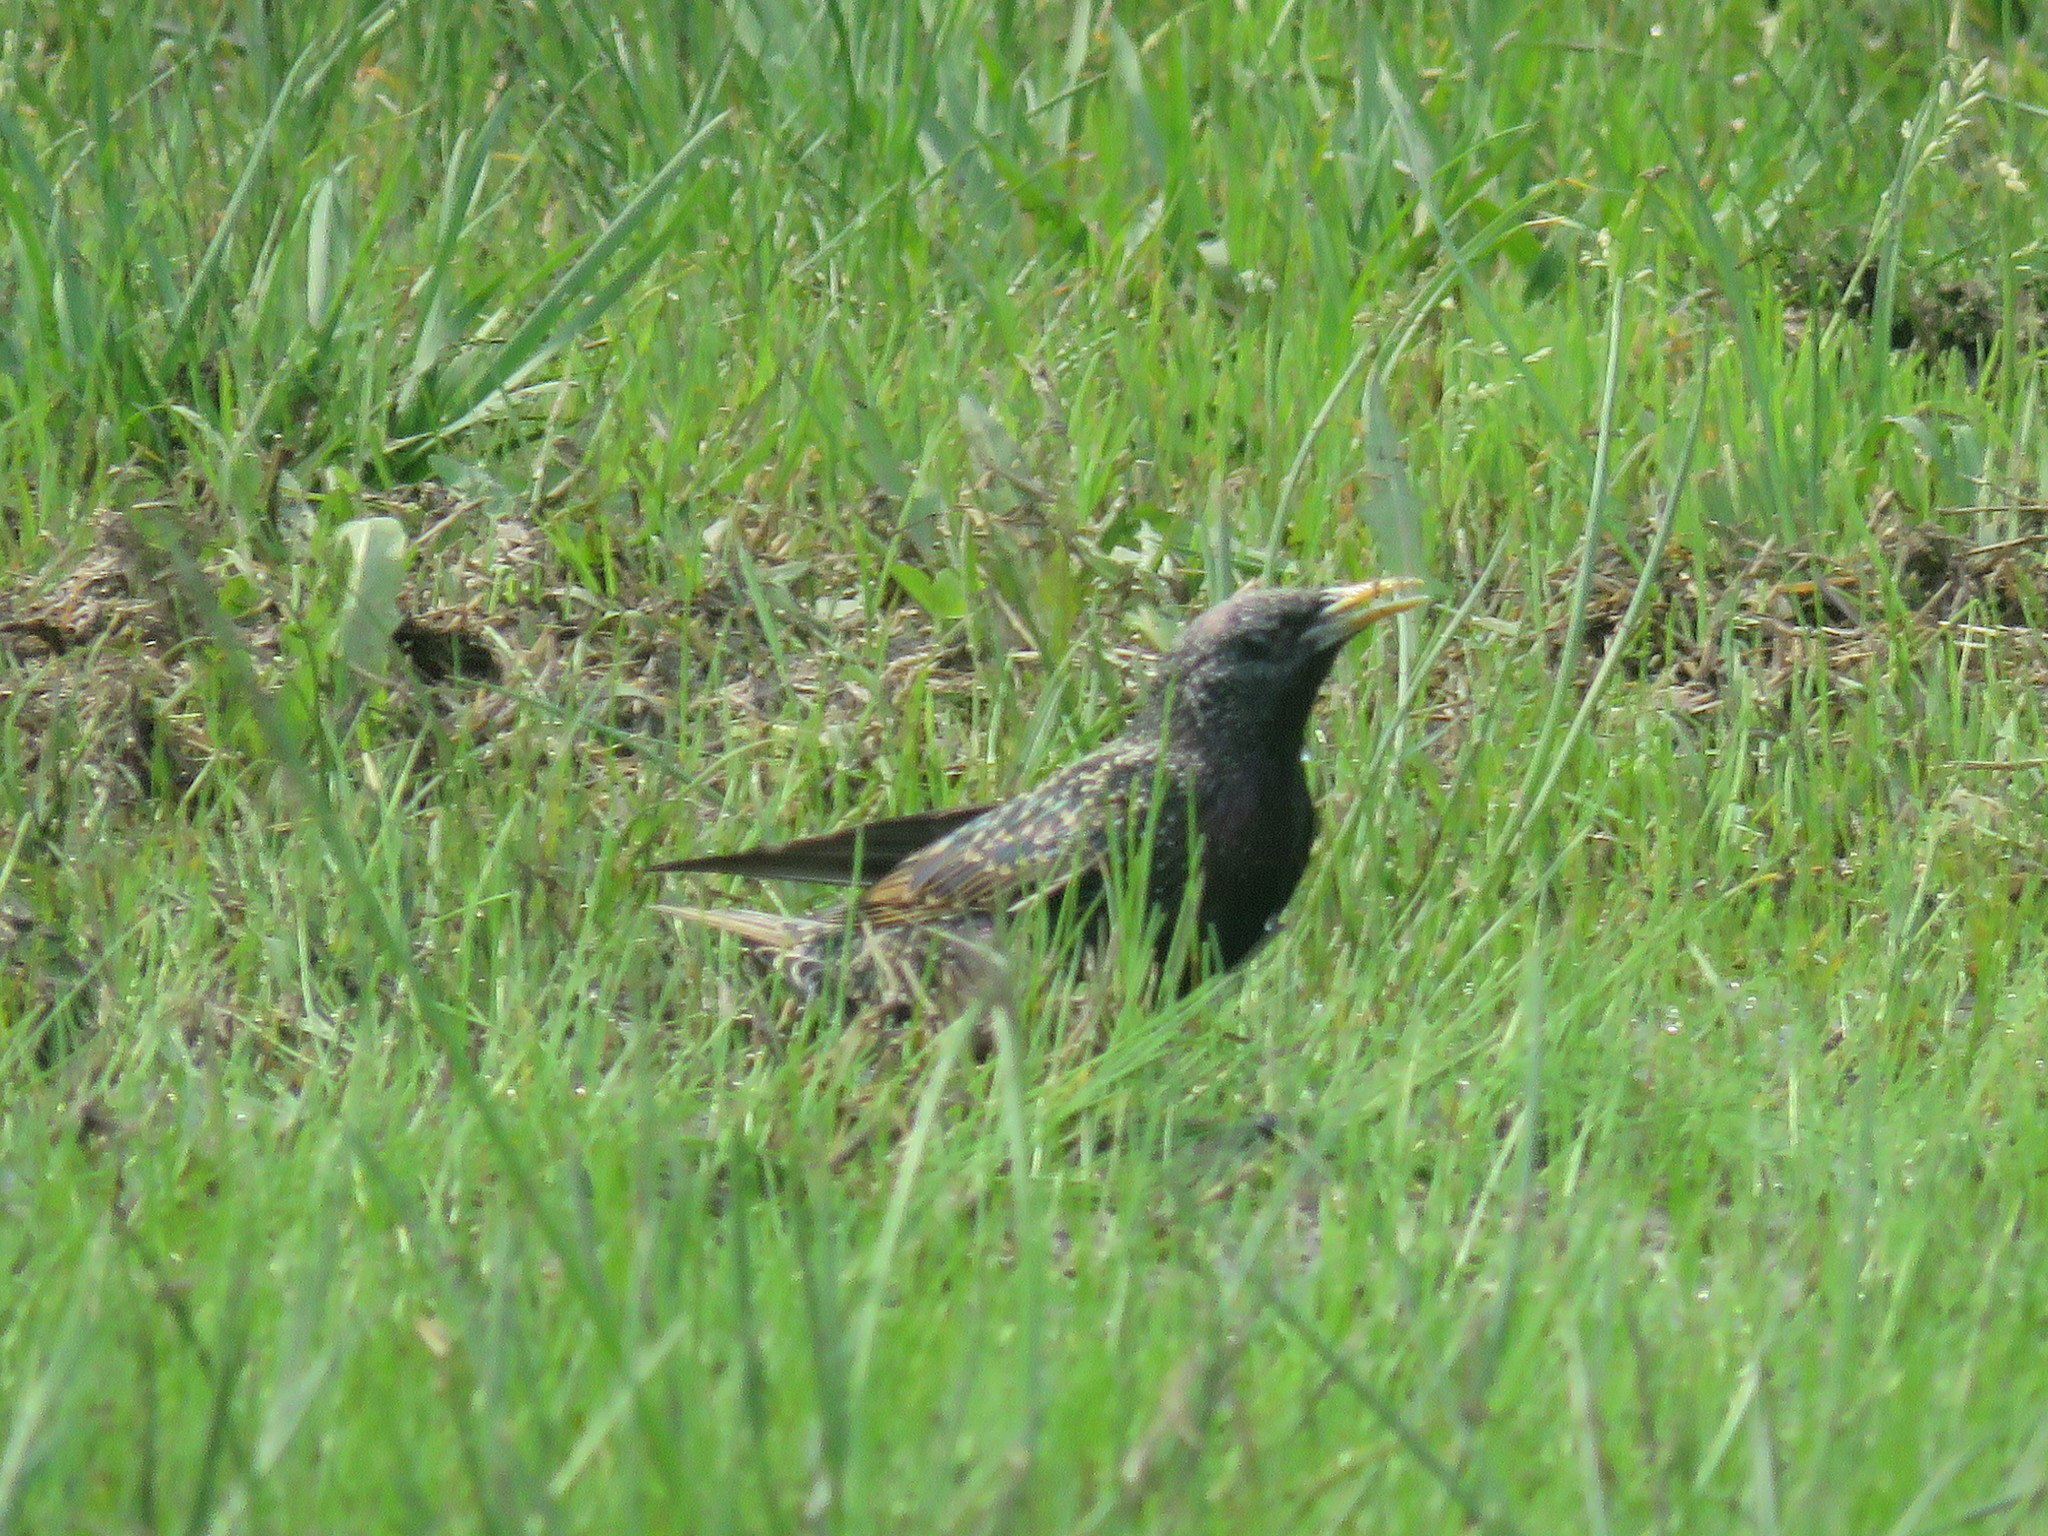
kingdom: Animalia
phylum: Chordata
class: Aves
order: Passeriformes
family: Sturnidae
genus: Sturnus
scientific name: Sturnus vulgaris
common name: Common starling
